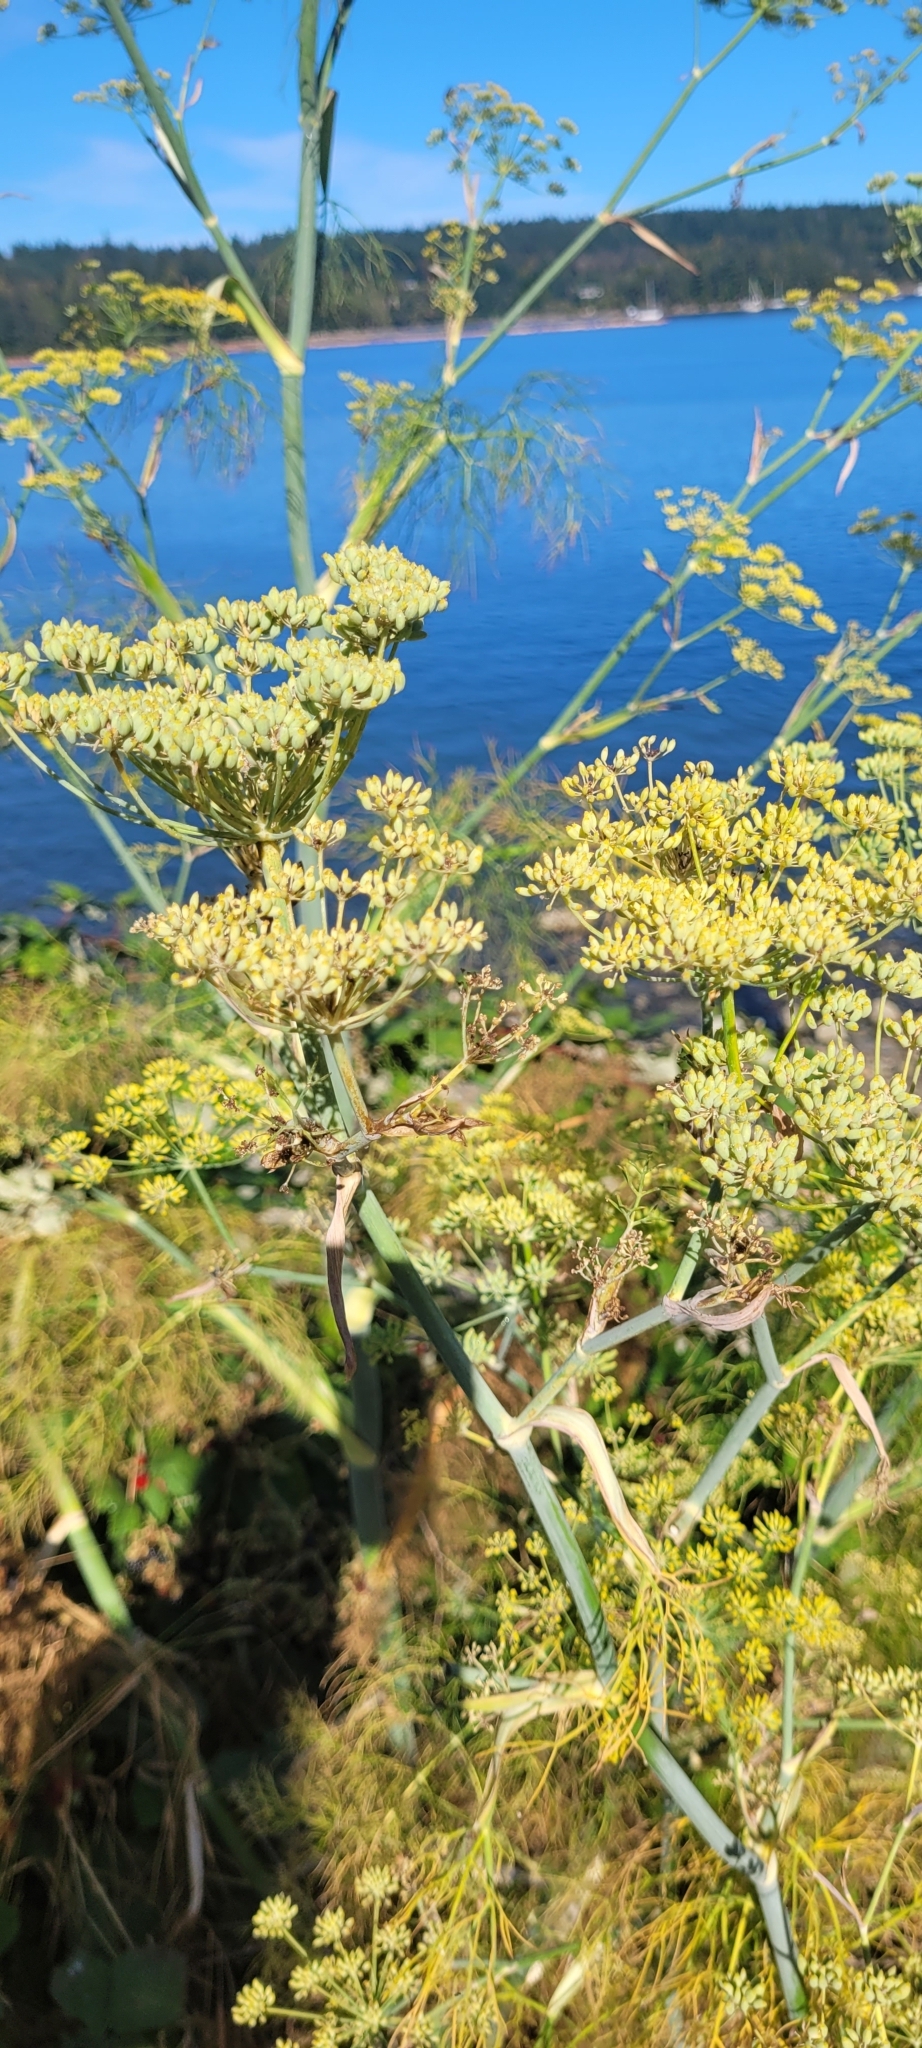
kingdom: Plantae
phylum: Tracheophyta
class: Magnoliopsida
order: Apiales
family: Apiaceae
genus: Foeniculum
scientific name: Foeniculum vulgare
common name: Fennel
